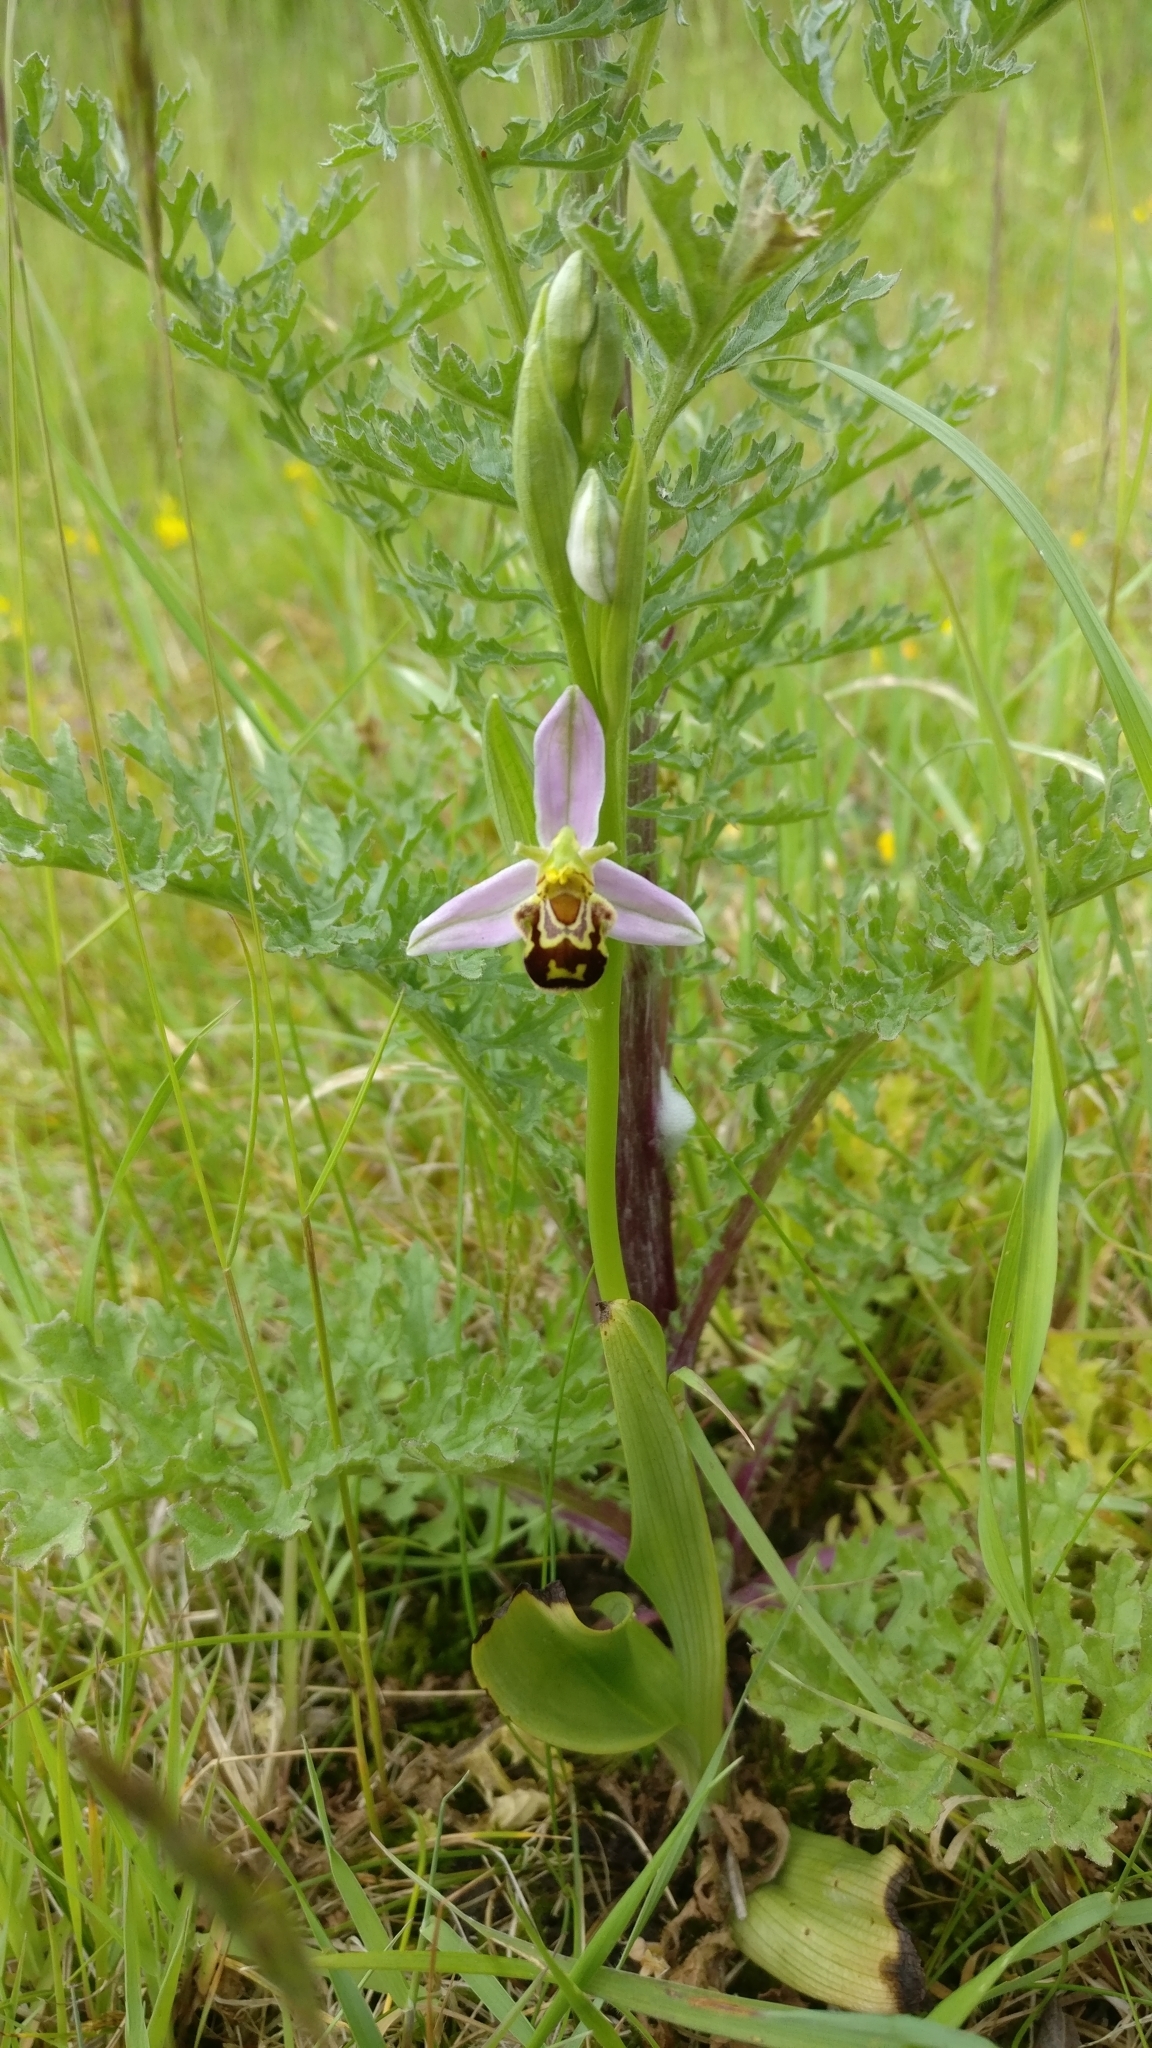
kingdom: Plantae
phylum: Tracheophyta
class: Liliopsida
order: Asparagales
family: Orchidaceae
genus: Ophrys
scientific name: Ophrys apifera
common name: Bee orchid
